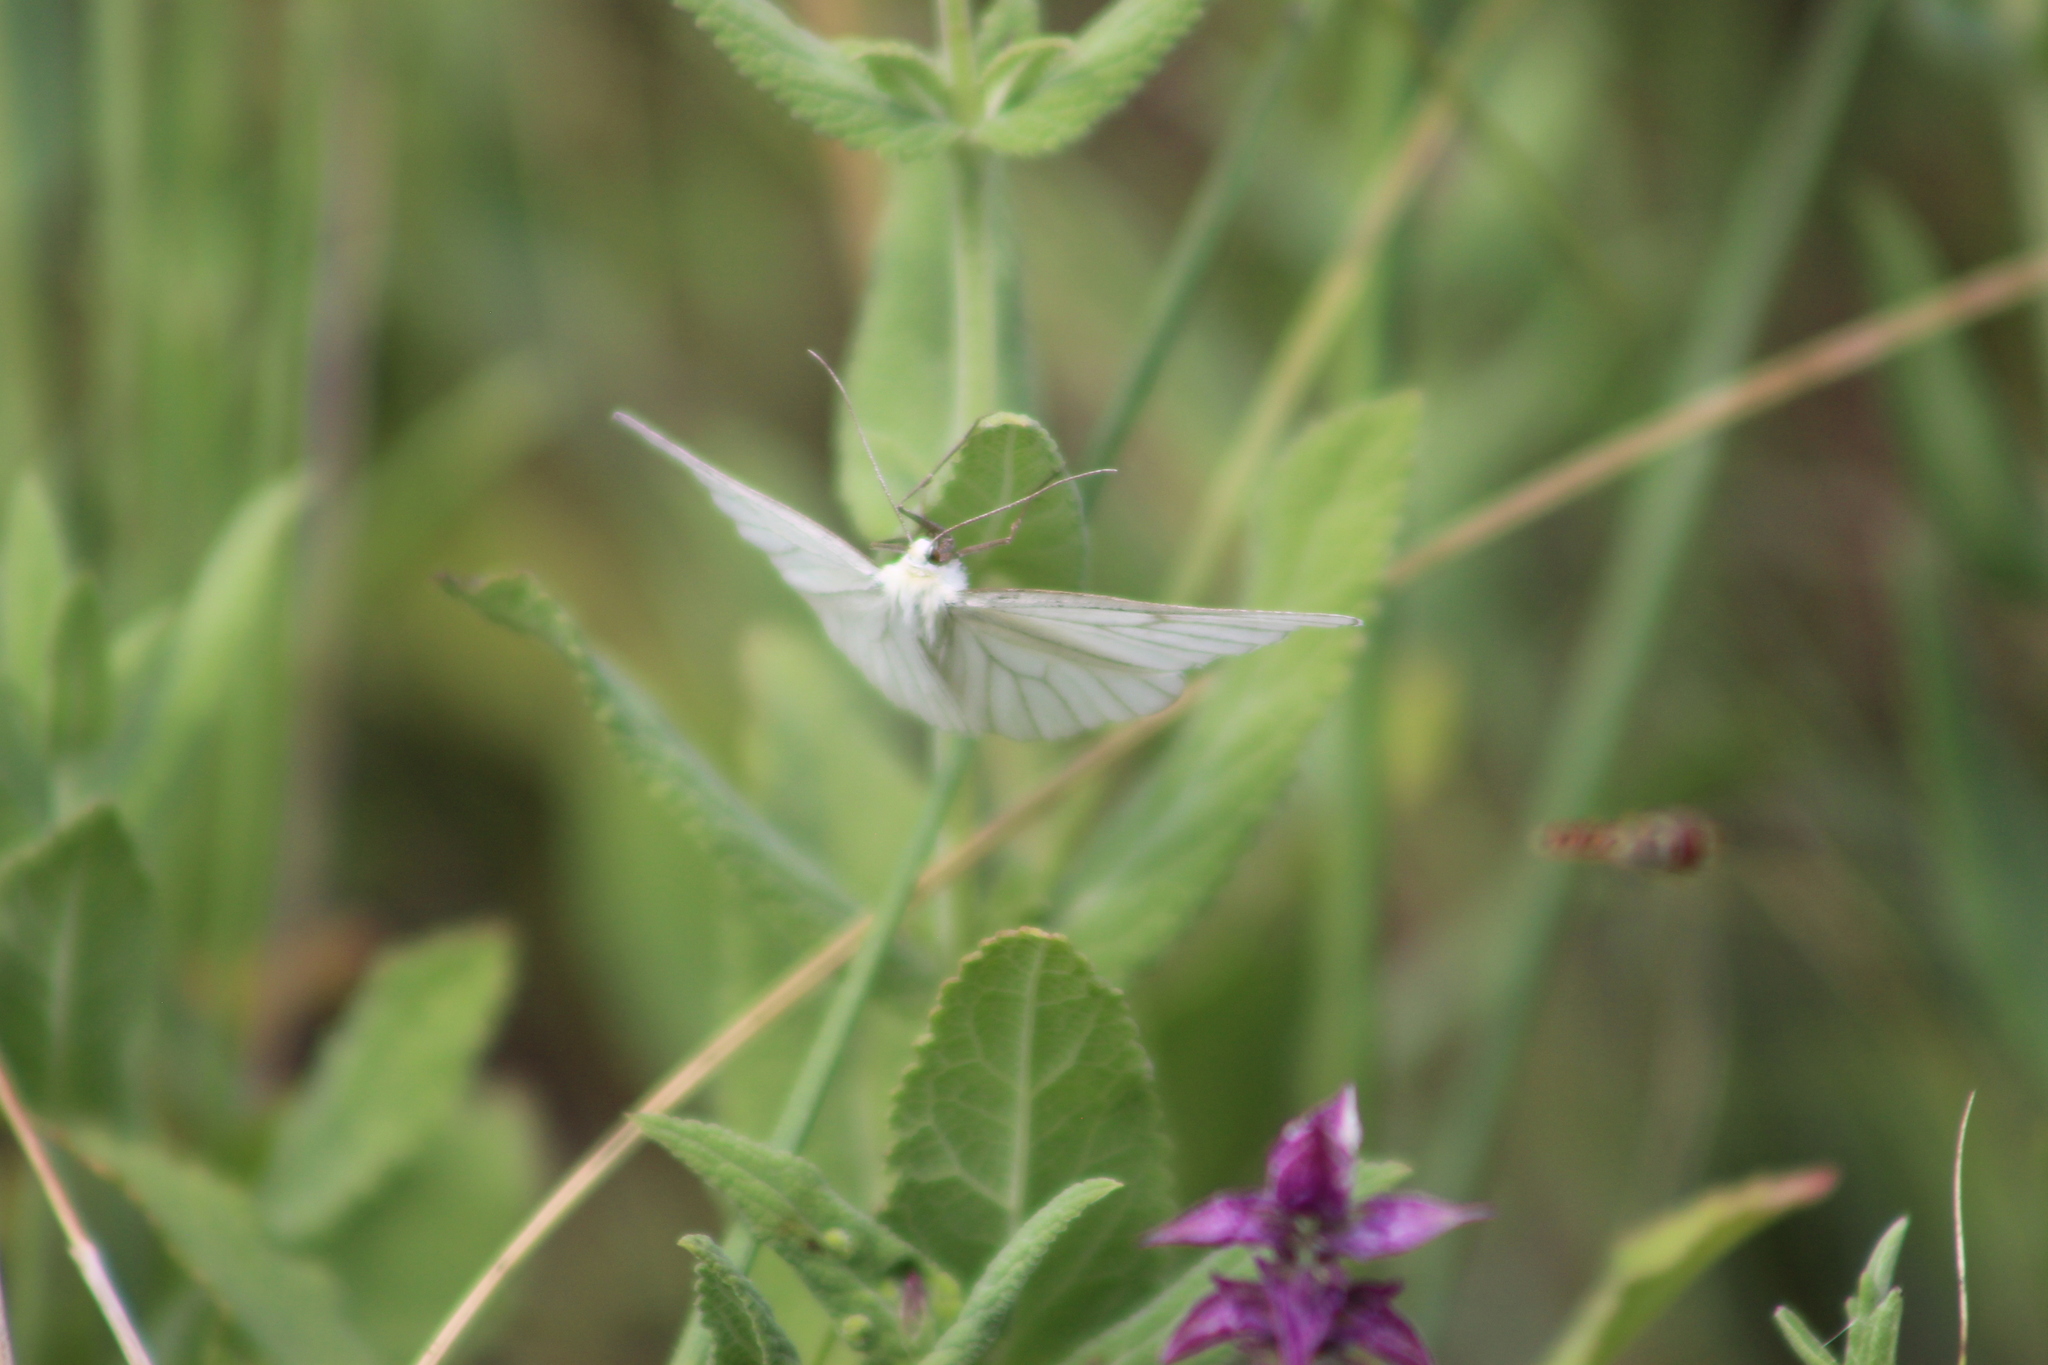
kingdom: Animalia
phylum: Arthropoda
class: Insecta
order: Lepidoptera
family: Geometridae
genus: Siona
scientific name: Siona lineata
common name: Black-veined moth
